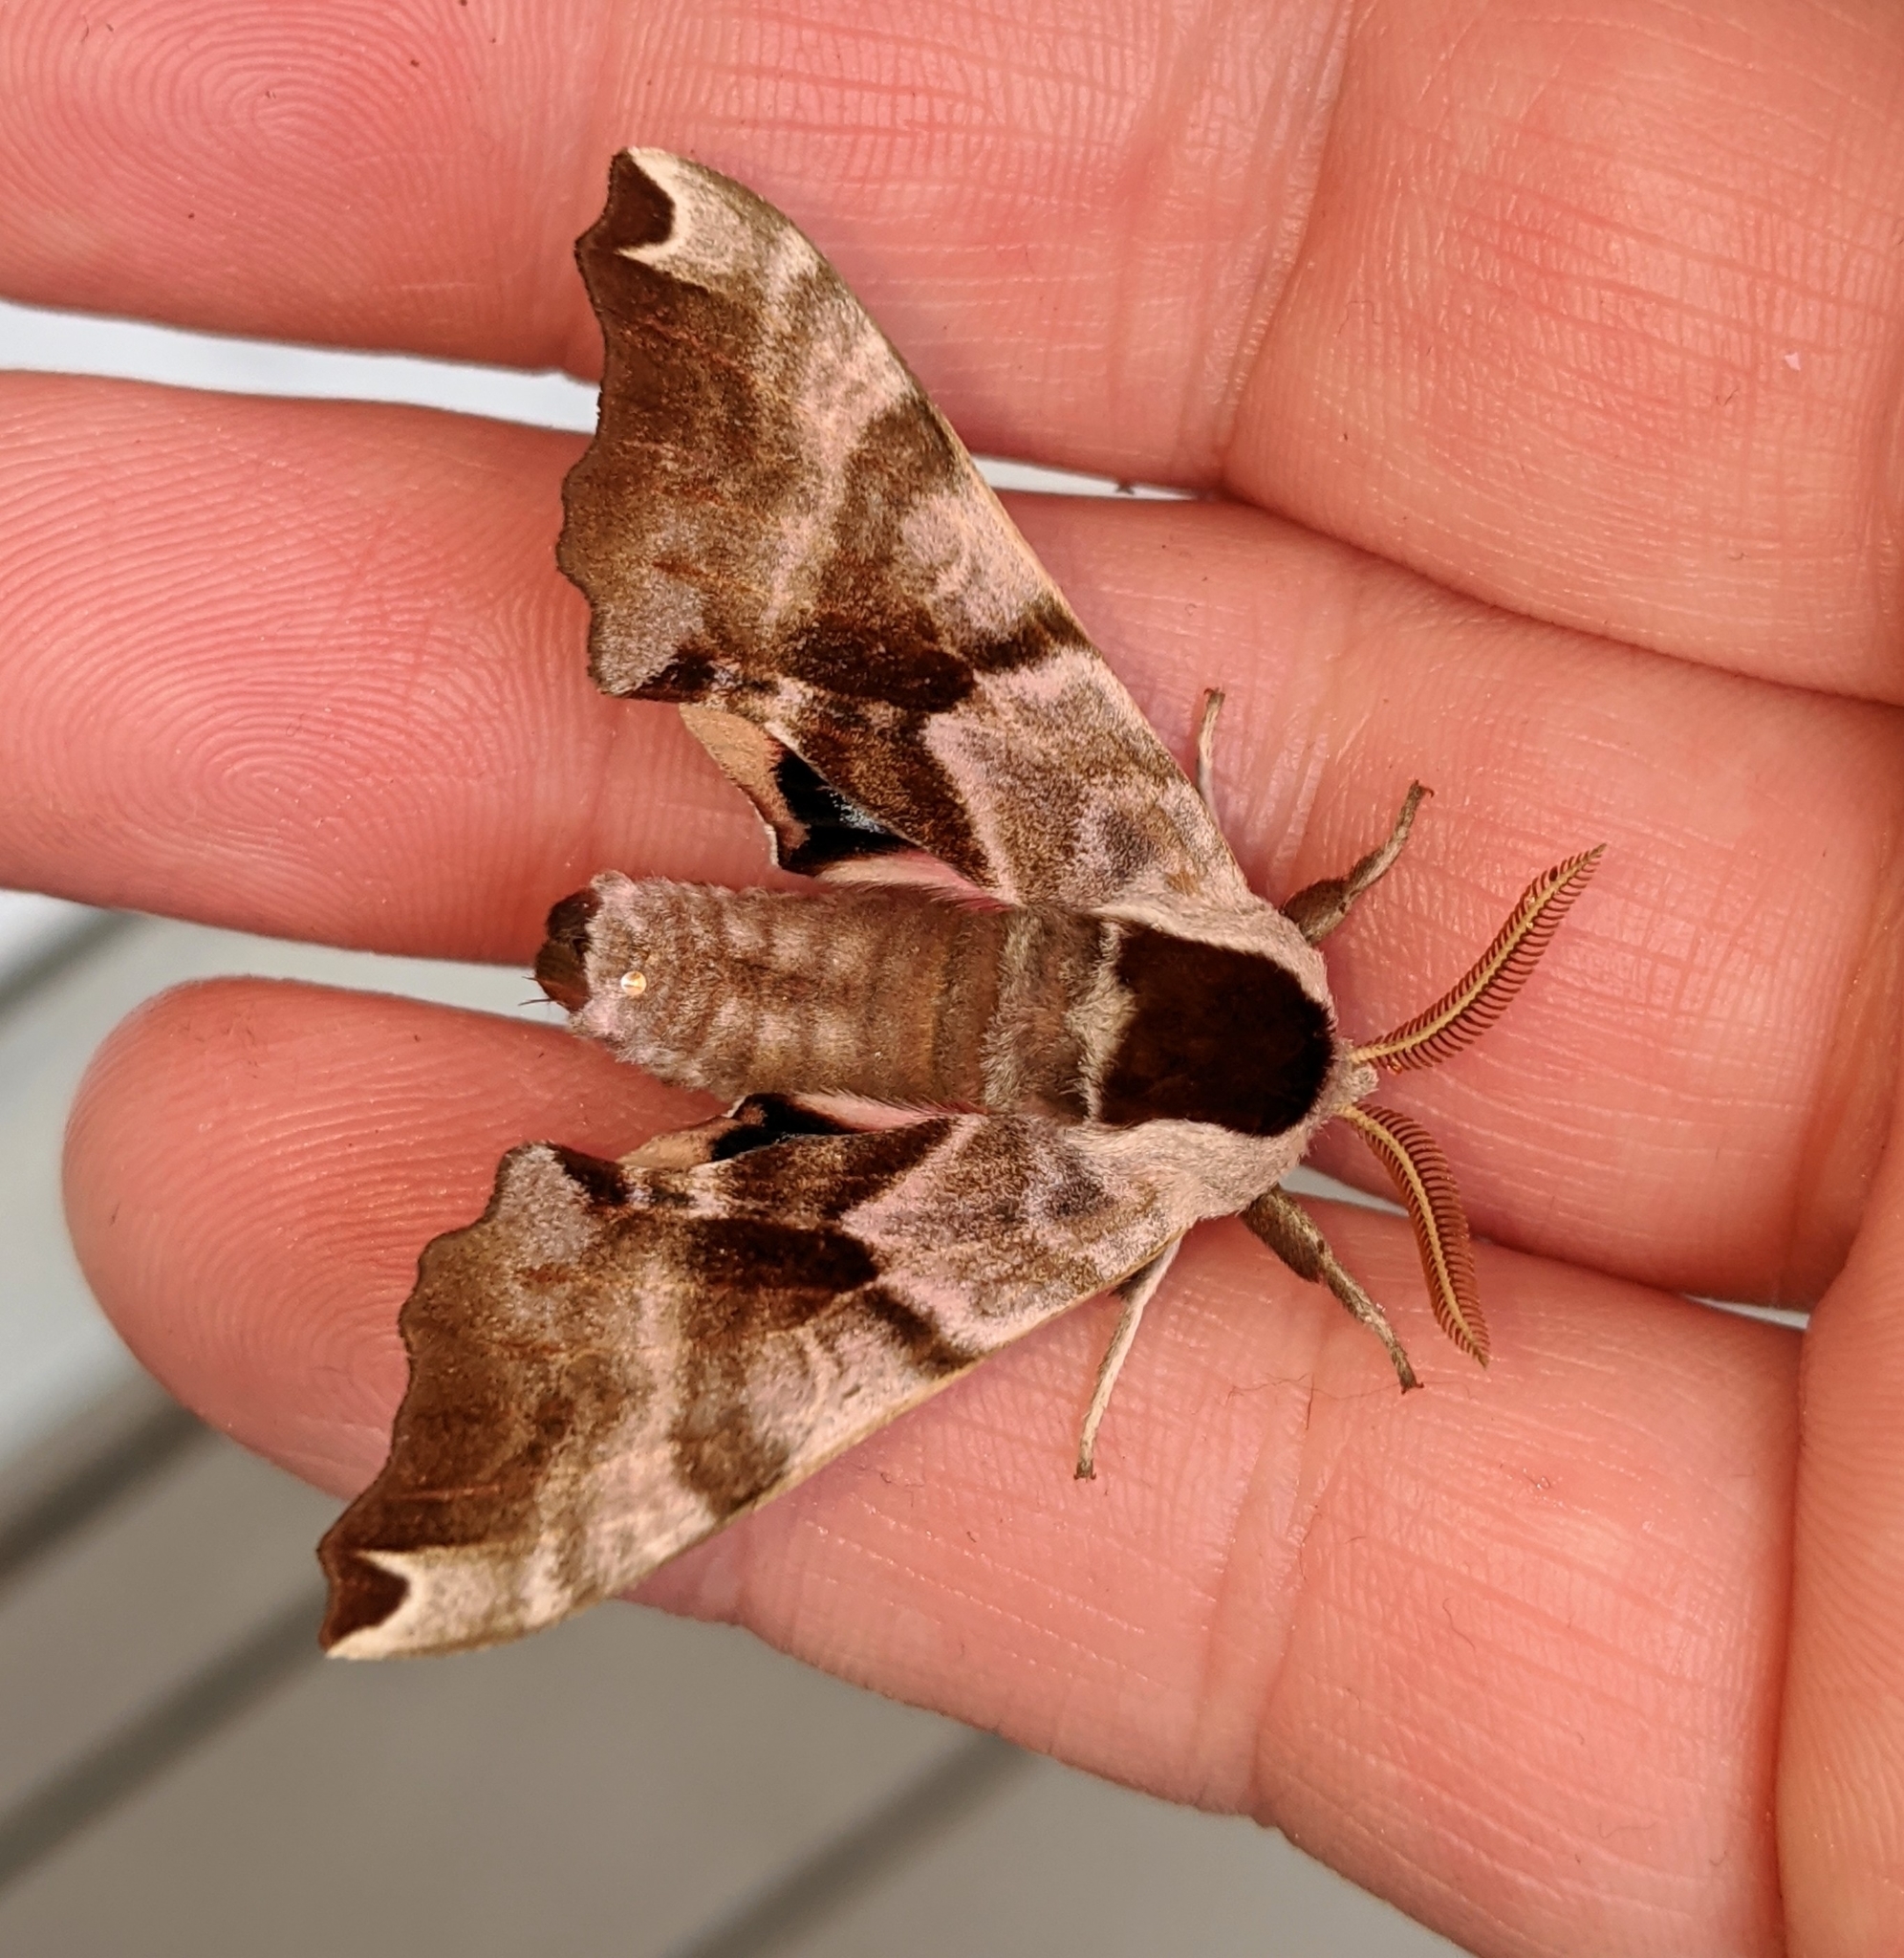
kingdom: Animalia
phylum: Arthropoda
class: Insecta
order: Lepidoptera
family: Sphingidae
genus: Smerinthus
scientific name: Smerinthus jamaicensis
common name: Twin spotted sphinx
